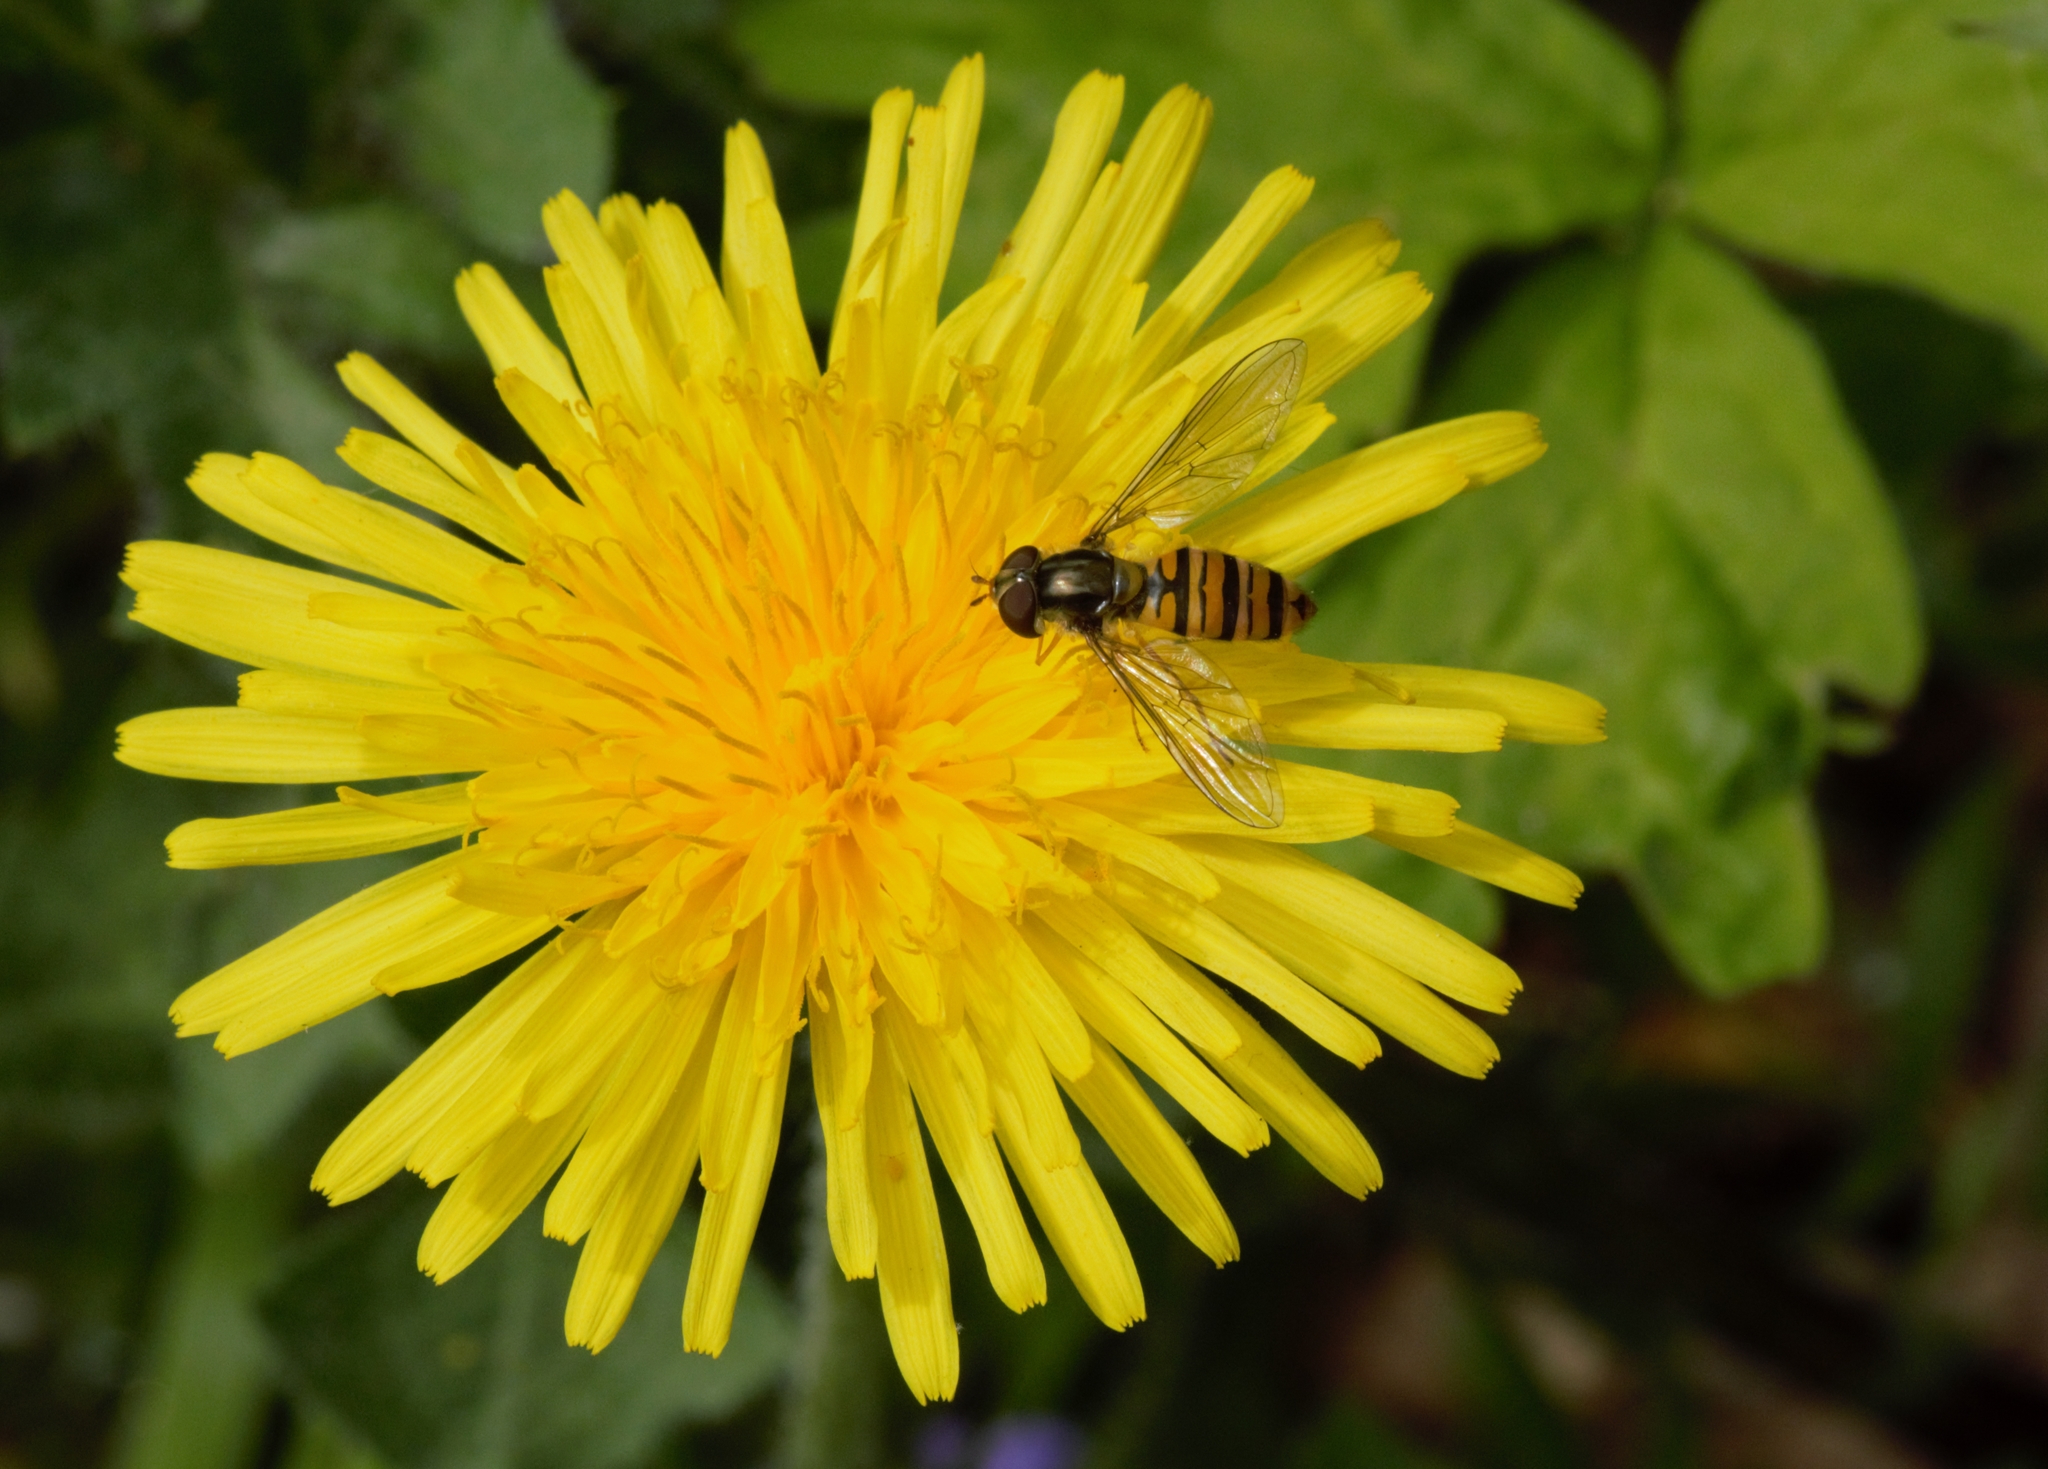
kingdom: Animalia
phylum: Arthropoda
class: Insecta
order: Diptera
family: Syrphidae
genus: Episyrphus
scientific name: Episyrphus balteatus
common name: Marmalade hoverfly
